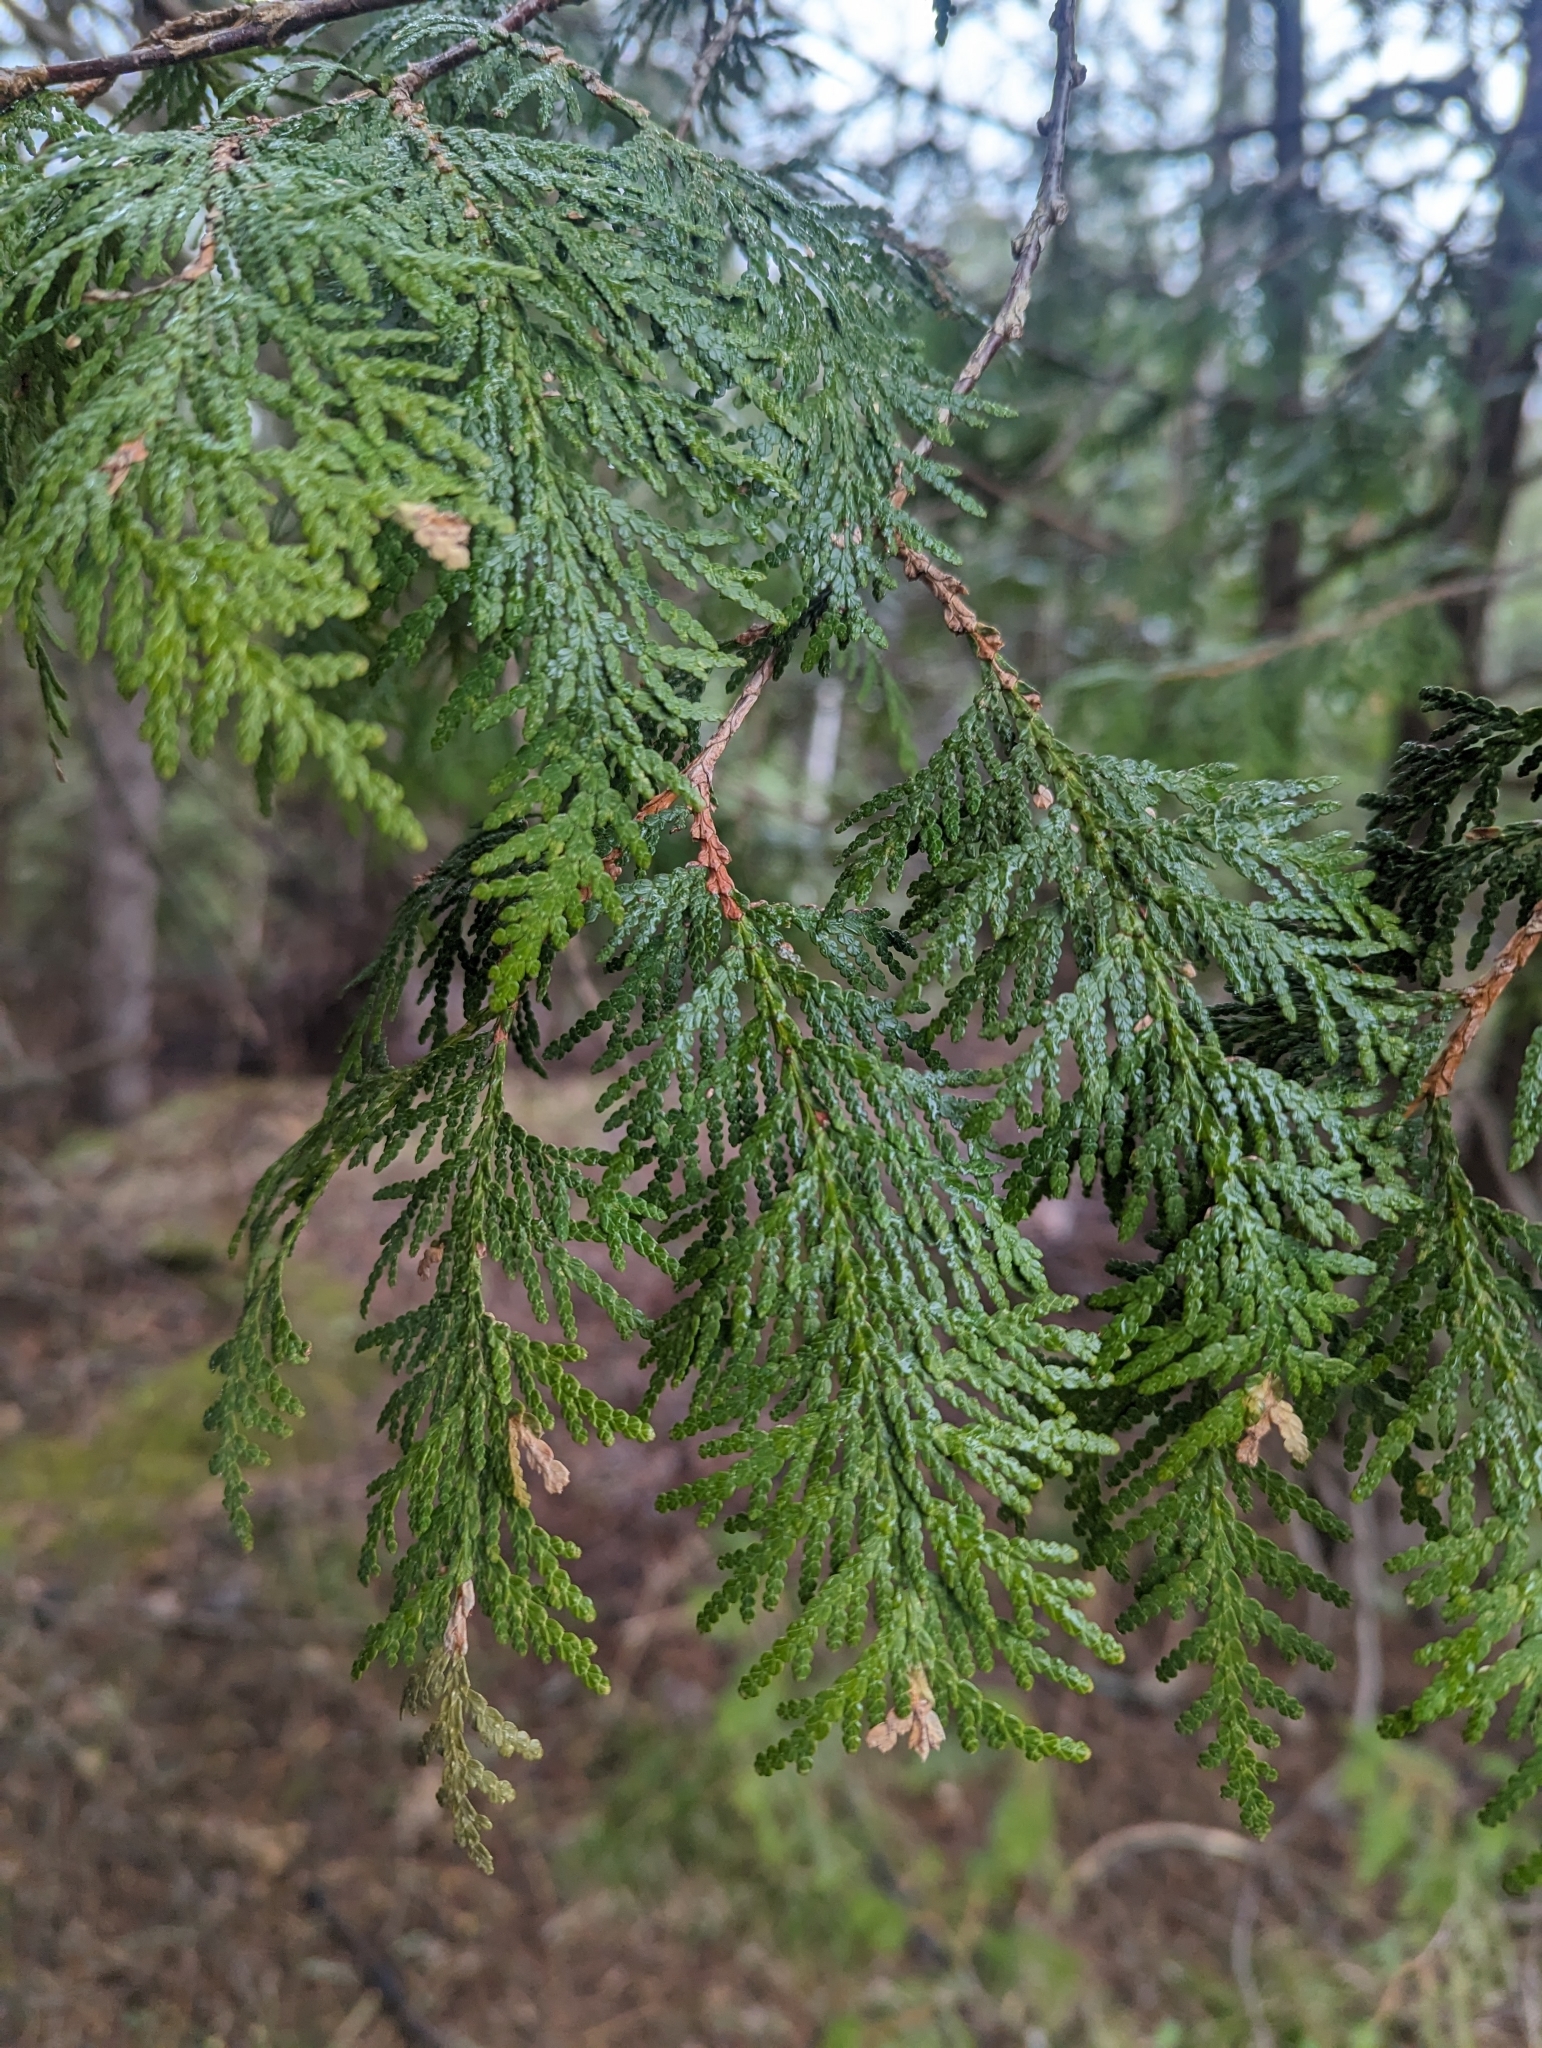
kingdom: Plantae
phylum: Tracheophyta
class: Pinopsida
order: Pinales
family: Cupressaceae
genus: Thuja
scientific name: Thuja occidentalis
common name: Northern white-cedar
